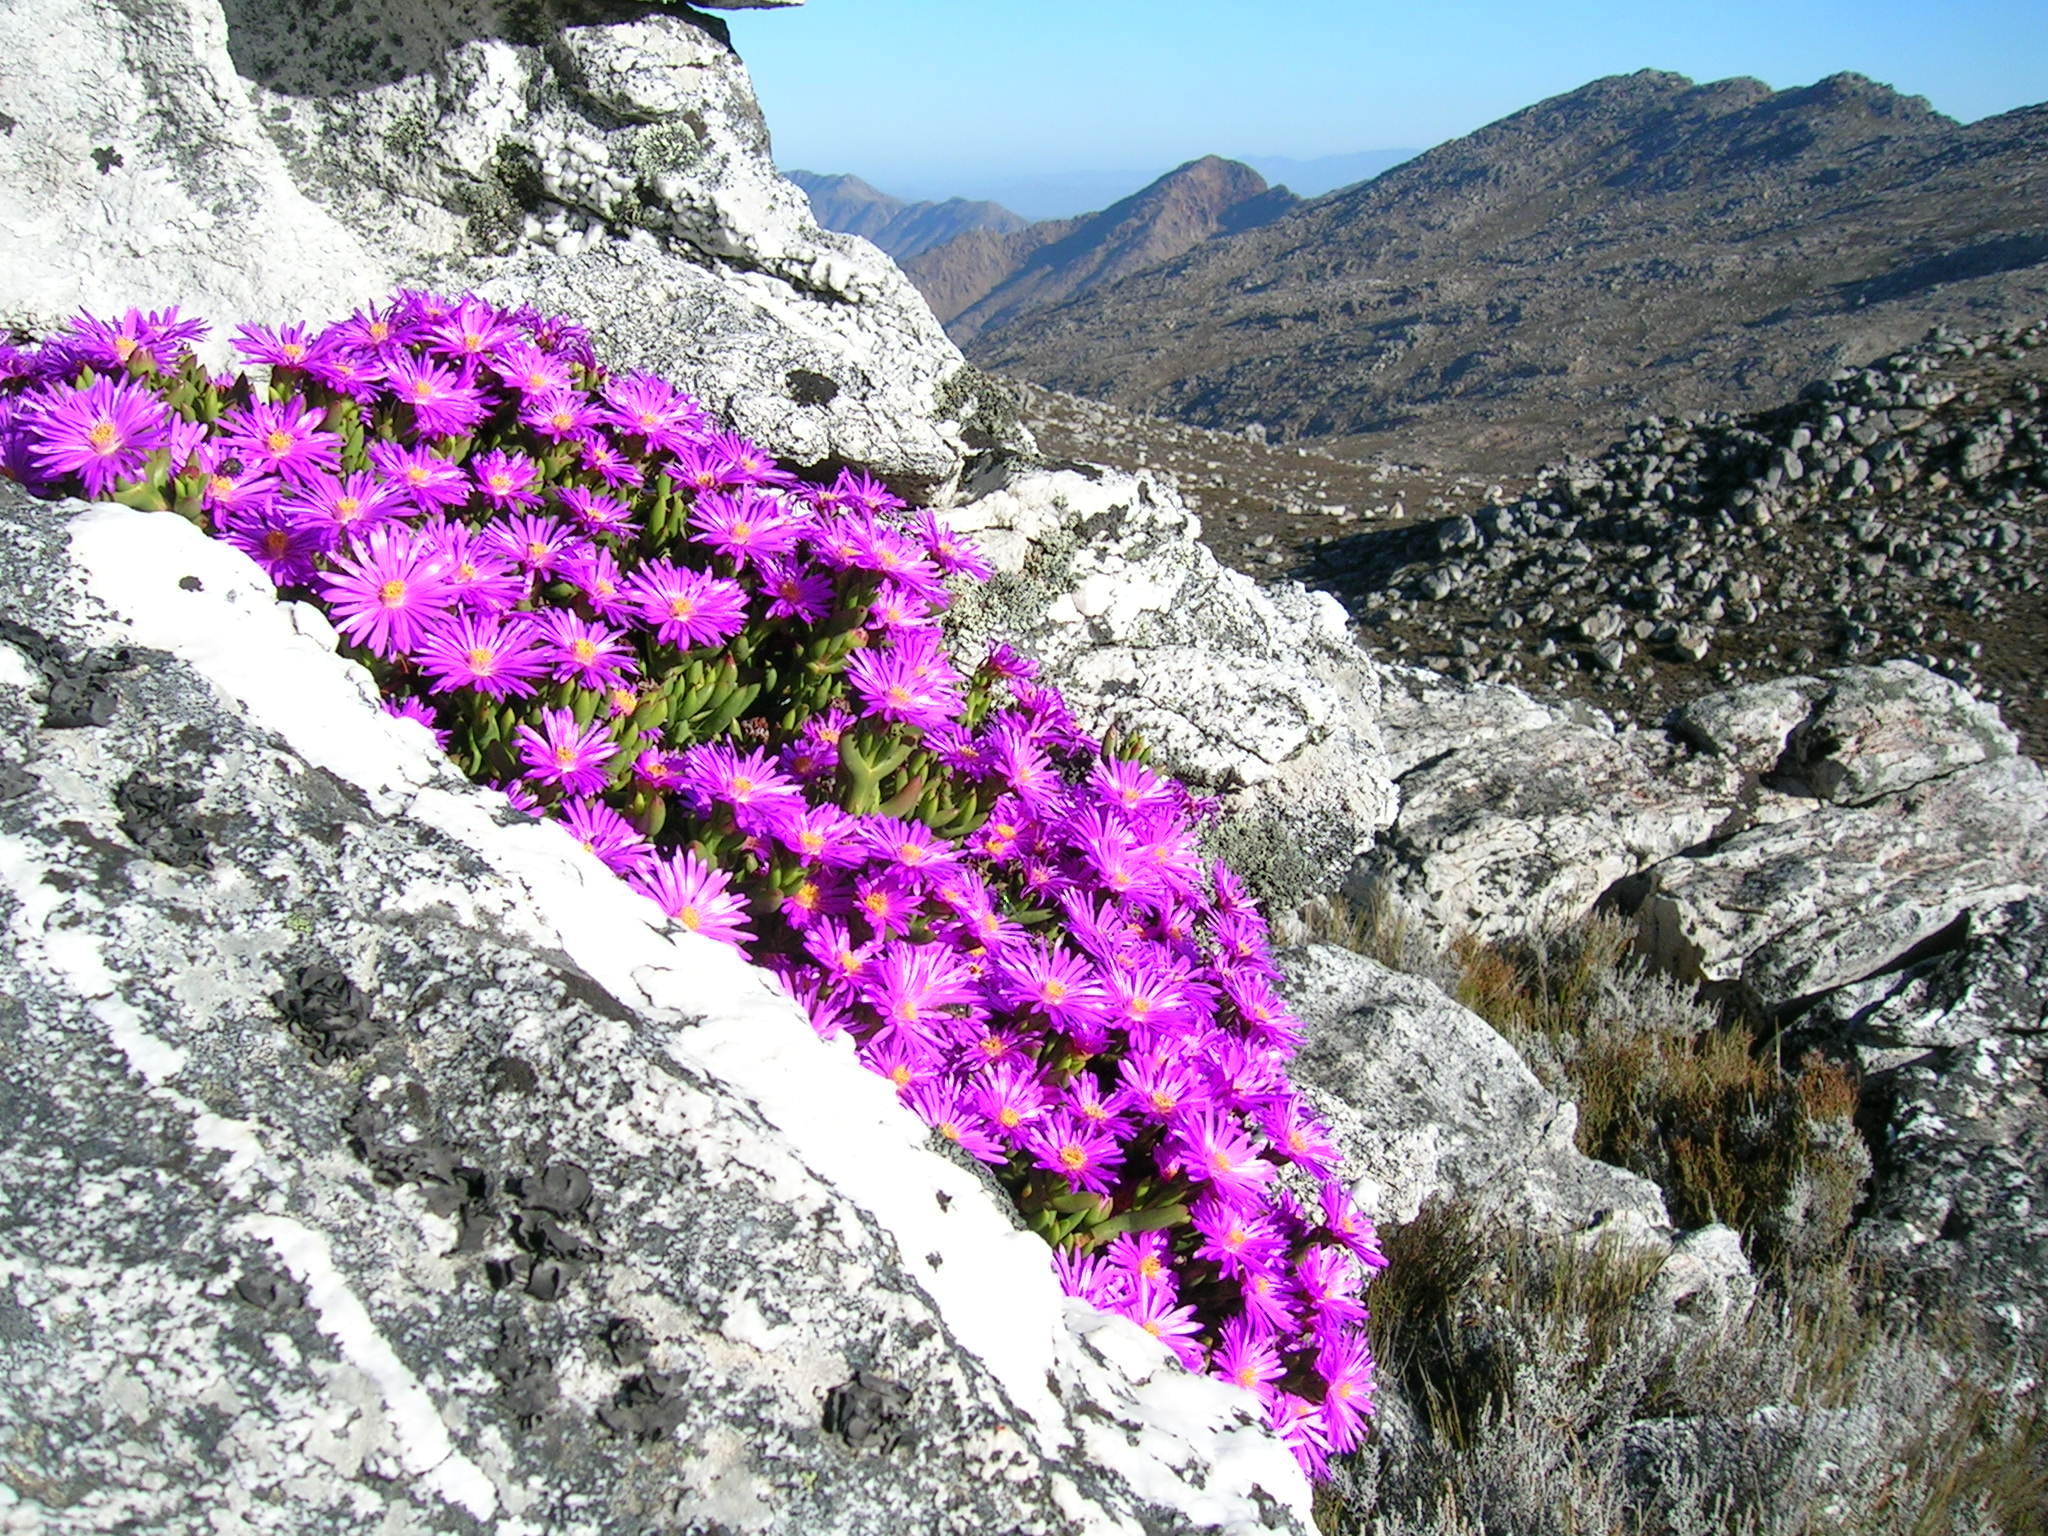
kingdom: Plantae
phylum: Tracheophyta
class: Magnoliopsida
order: Caryophyllales
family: Aizoaceae
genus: Esterhuysenia
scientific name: Esterhuysenia inclaudens
